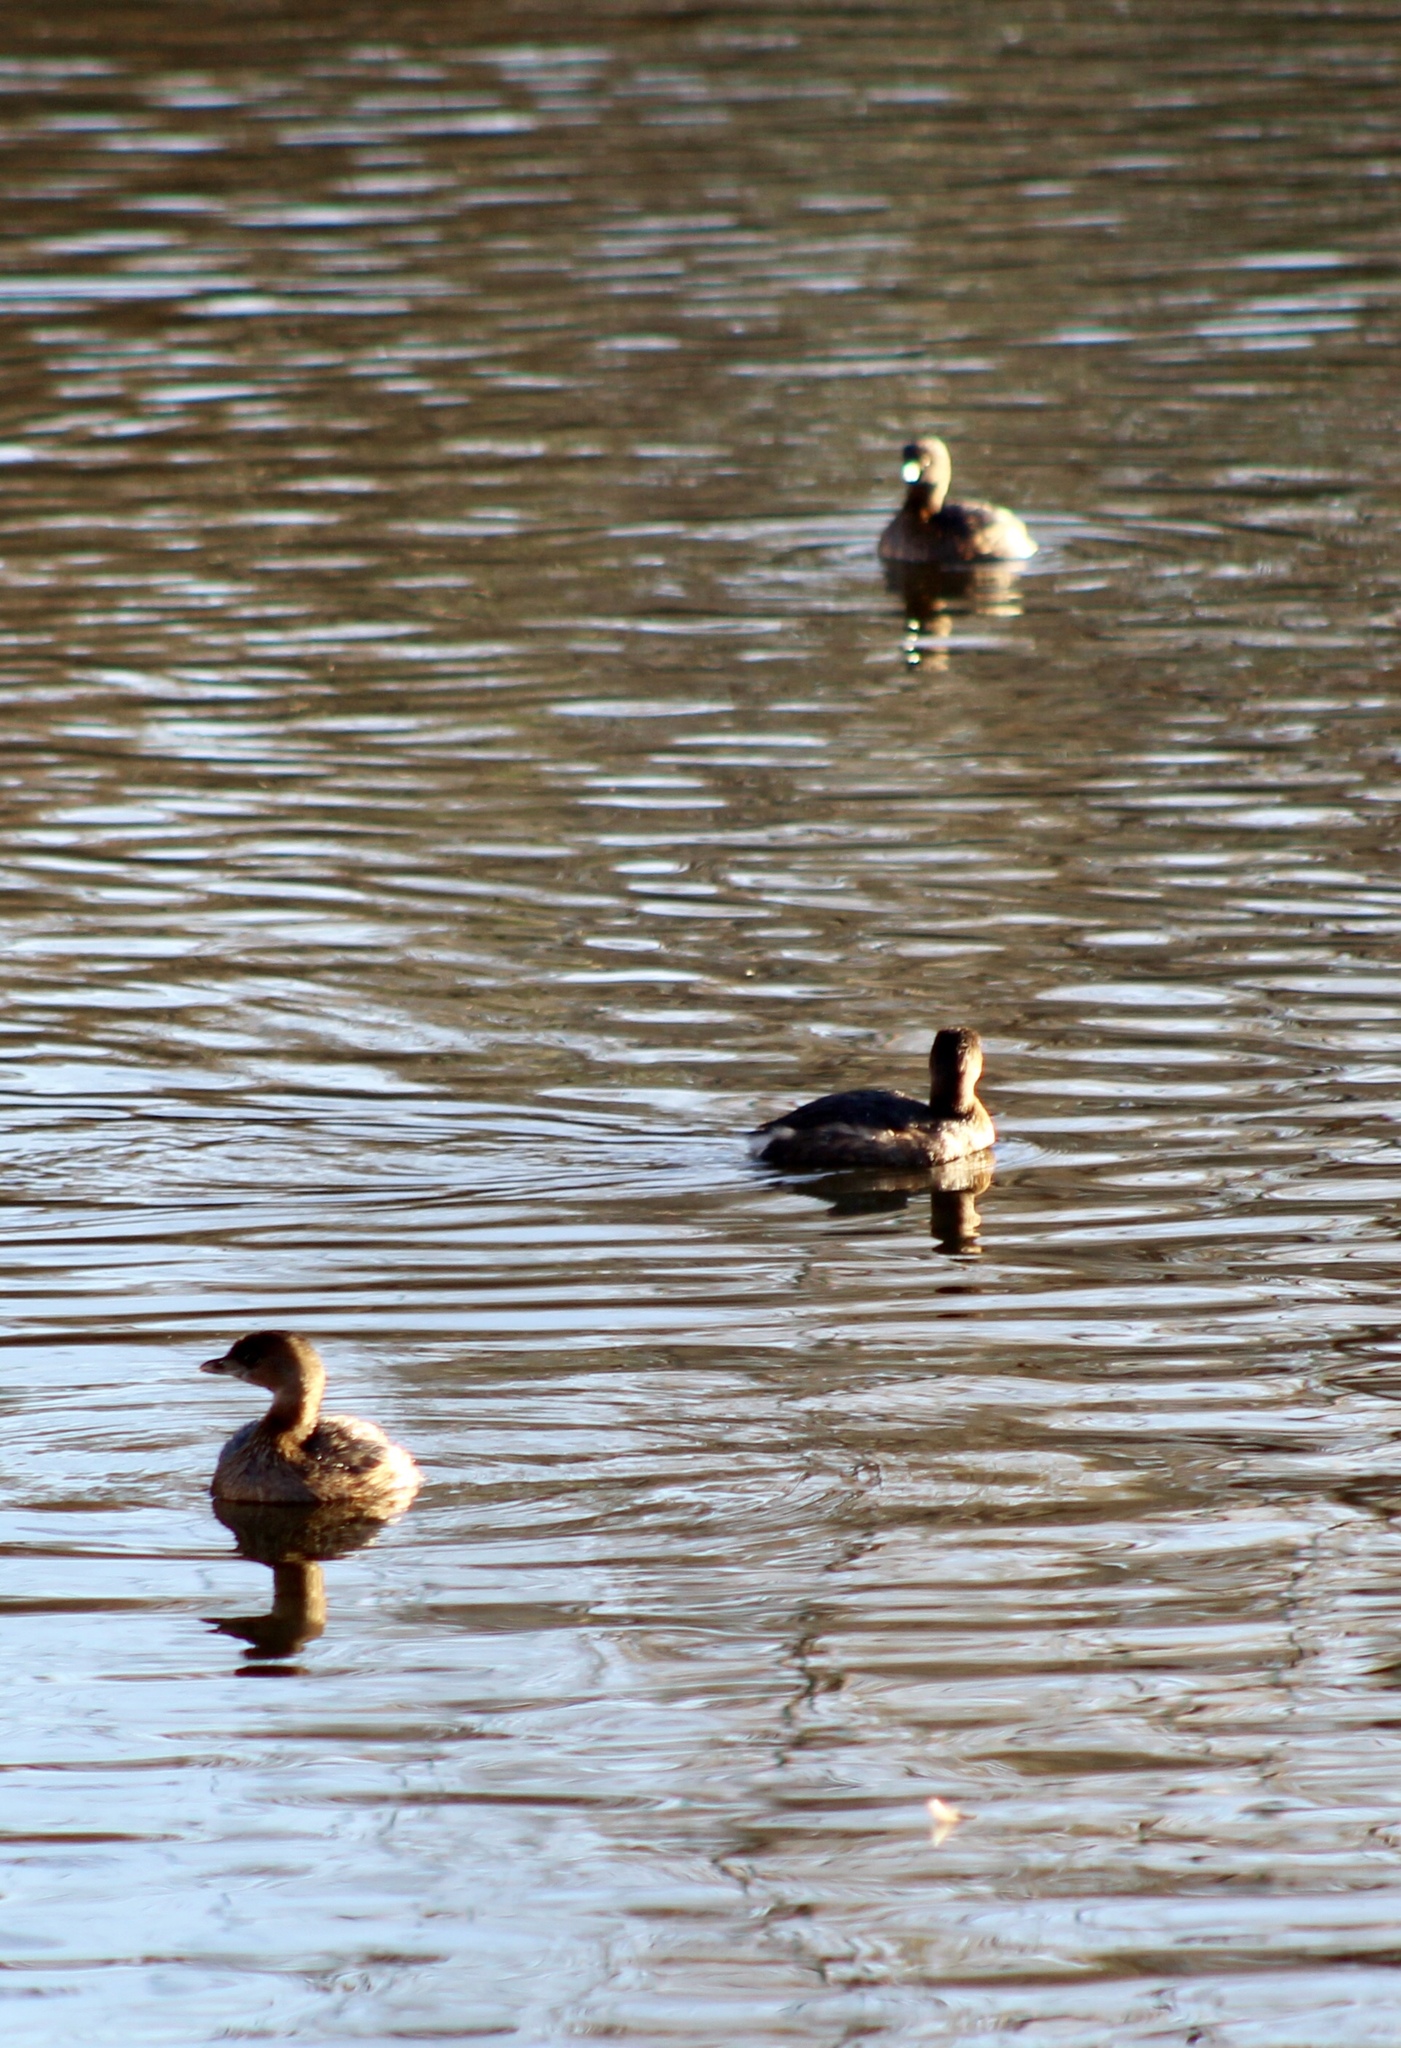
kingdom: Animalia
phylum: Chordata
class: Aves
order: Podicipediformes
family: Podicipedidae
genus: Podilymbus
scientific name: Podilymbus podiceps
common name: Pied-billed grebe
